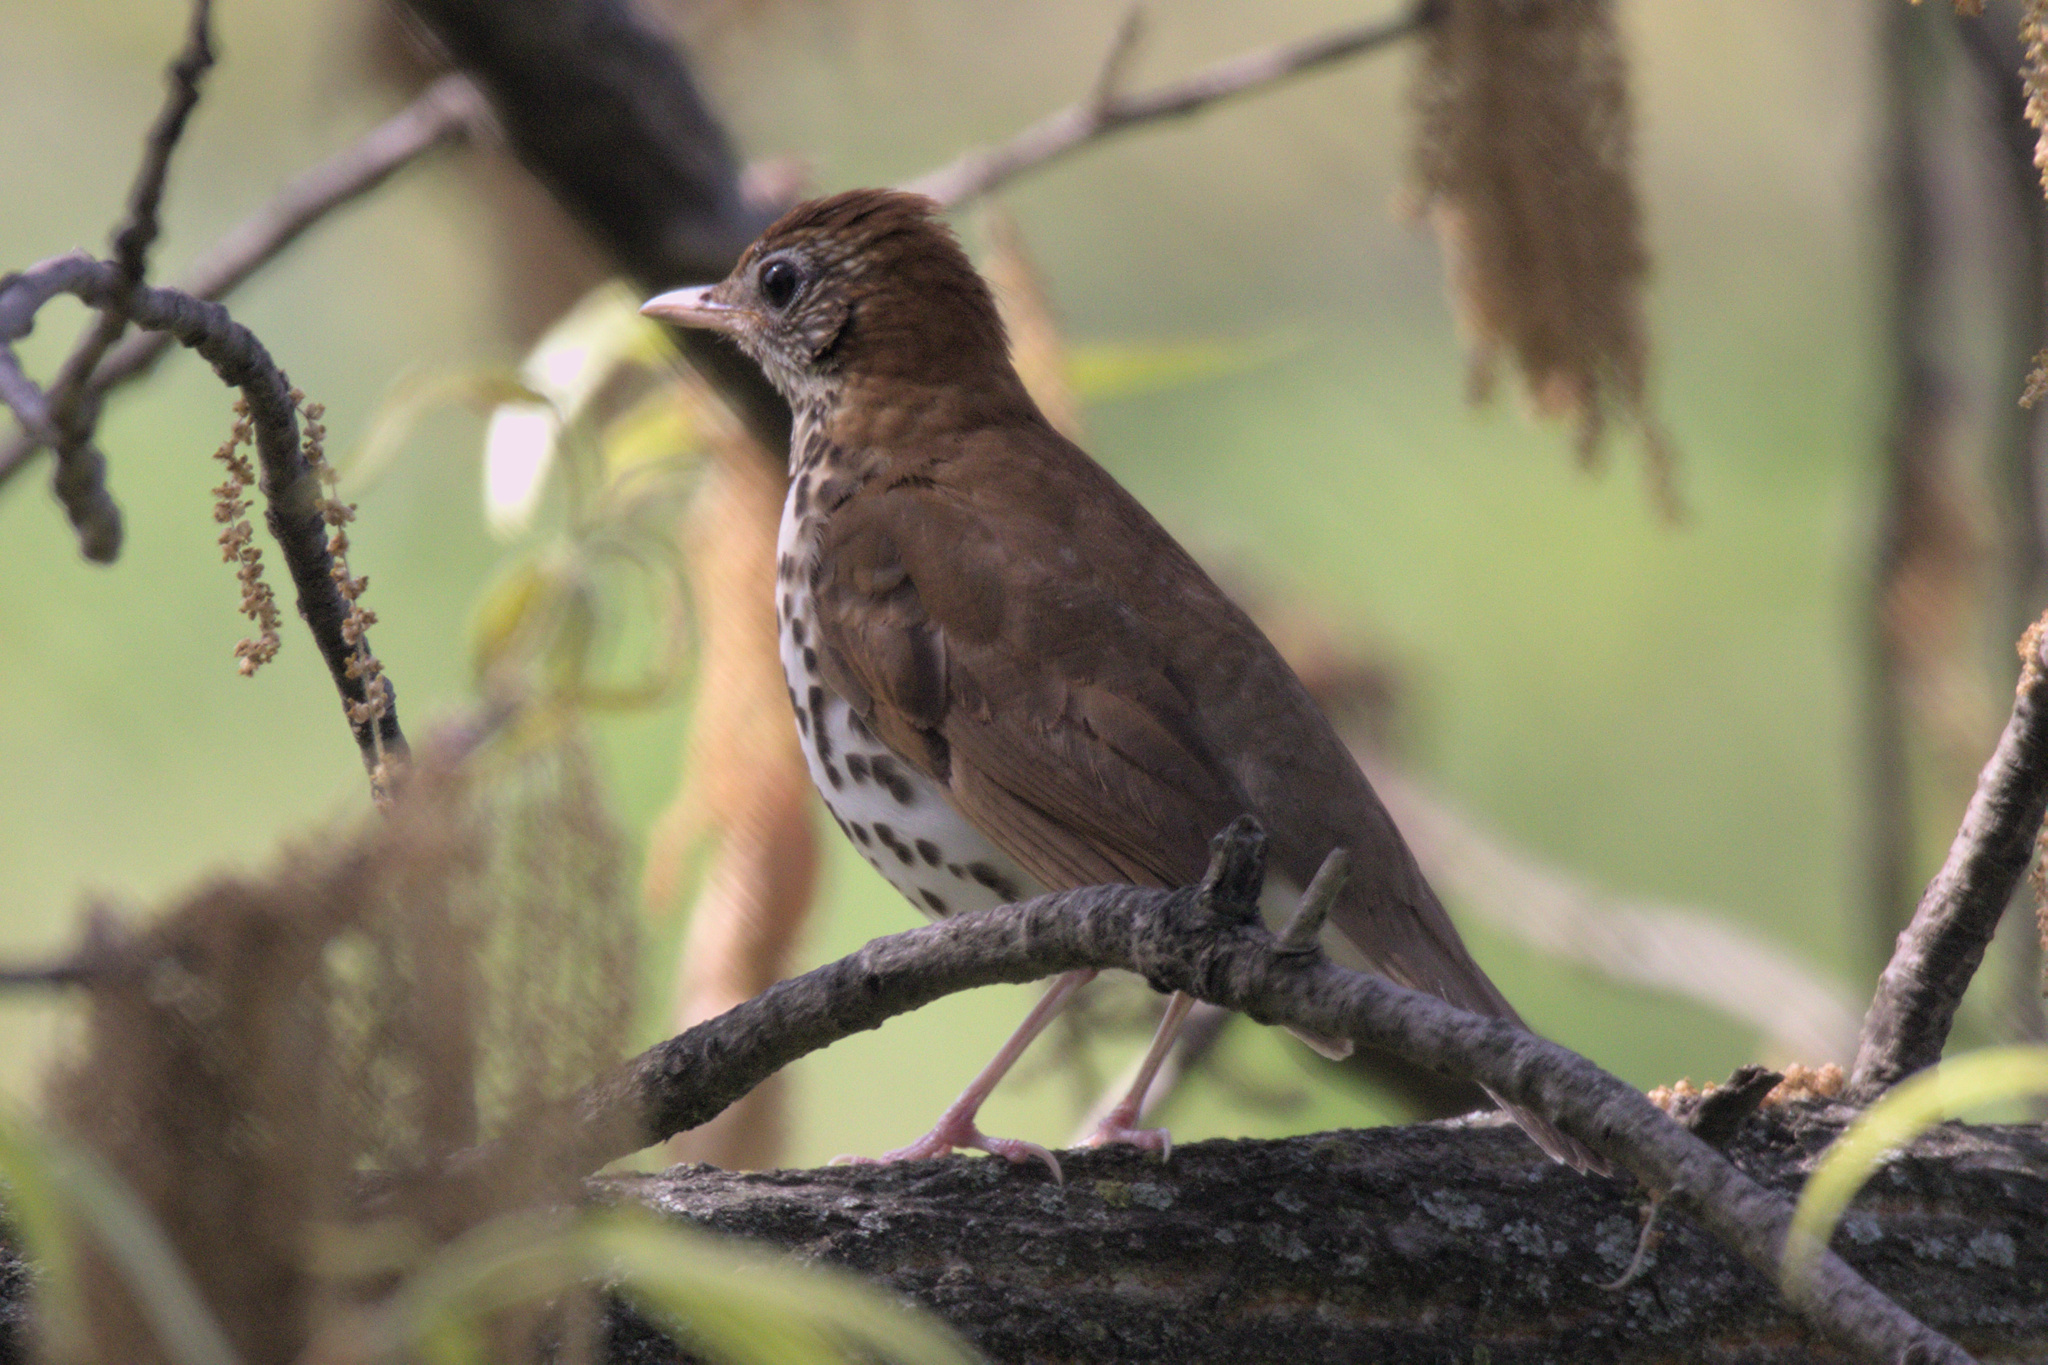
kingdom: Animalia
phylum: Chordata
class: Aves
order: Passeriformes
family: Turdidae
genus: Hylocichla
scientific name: Hylocichla mustelina
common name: Wood thrush
